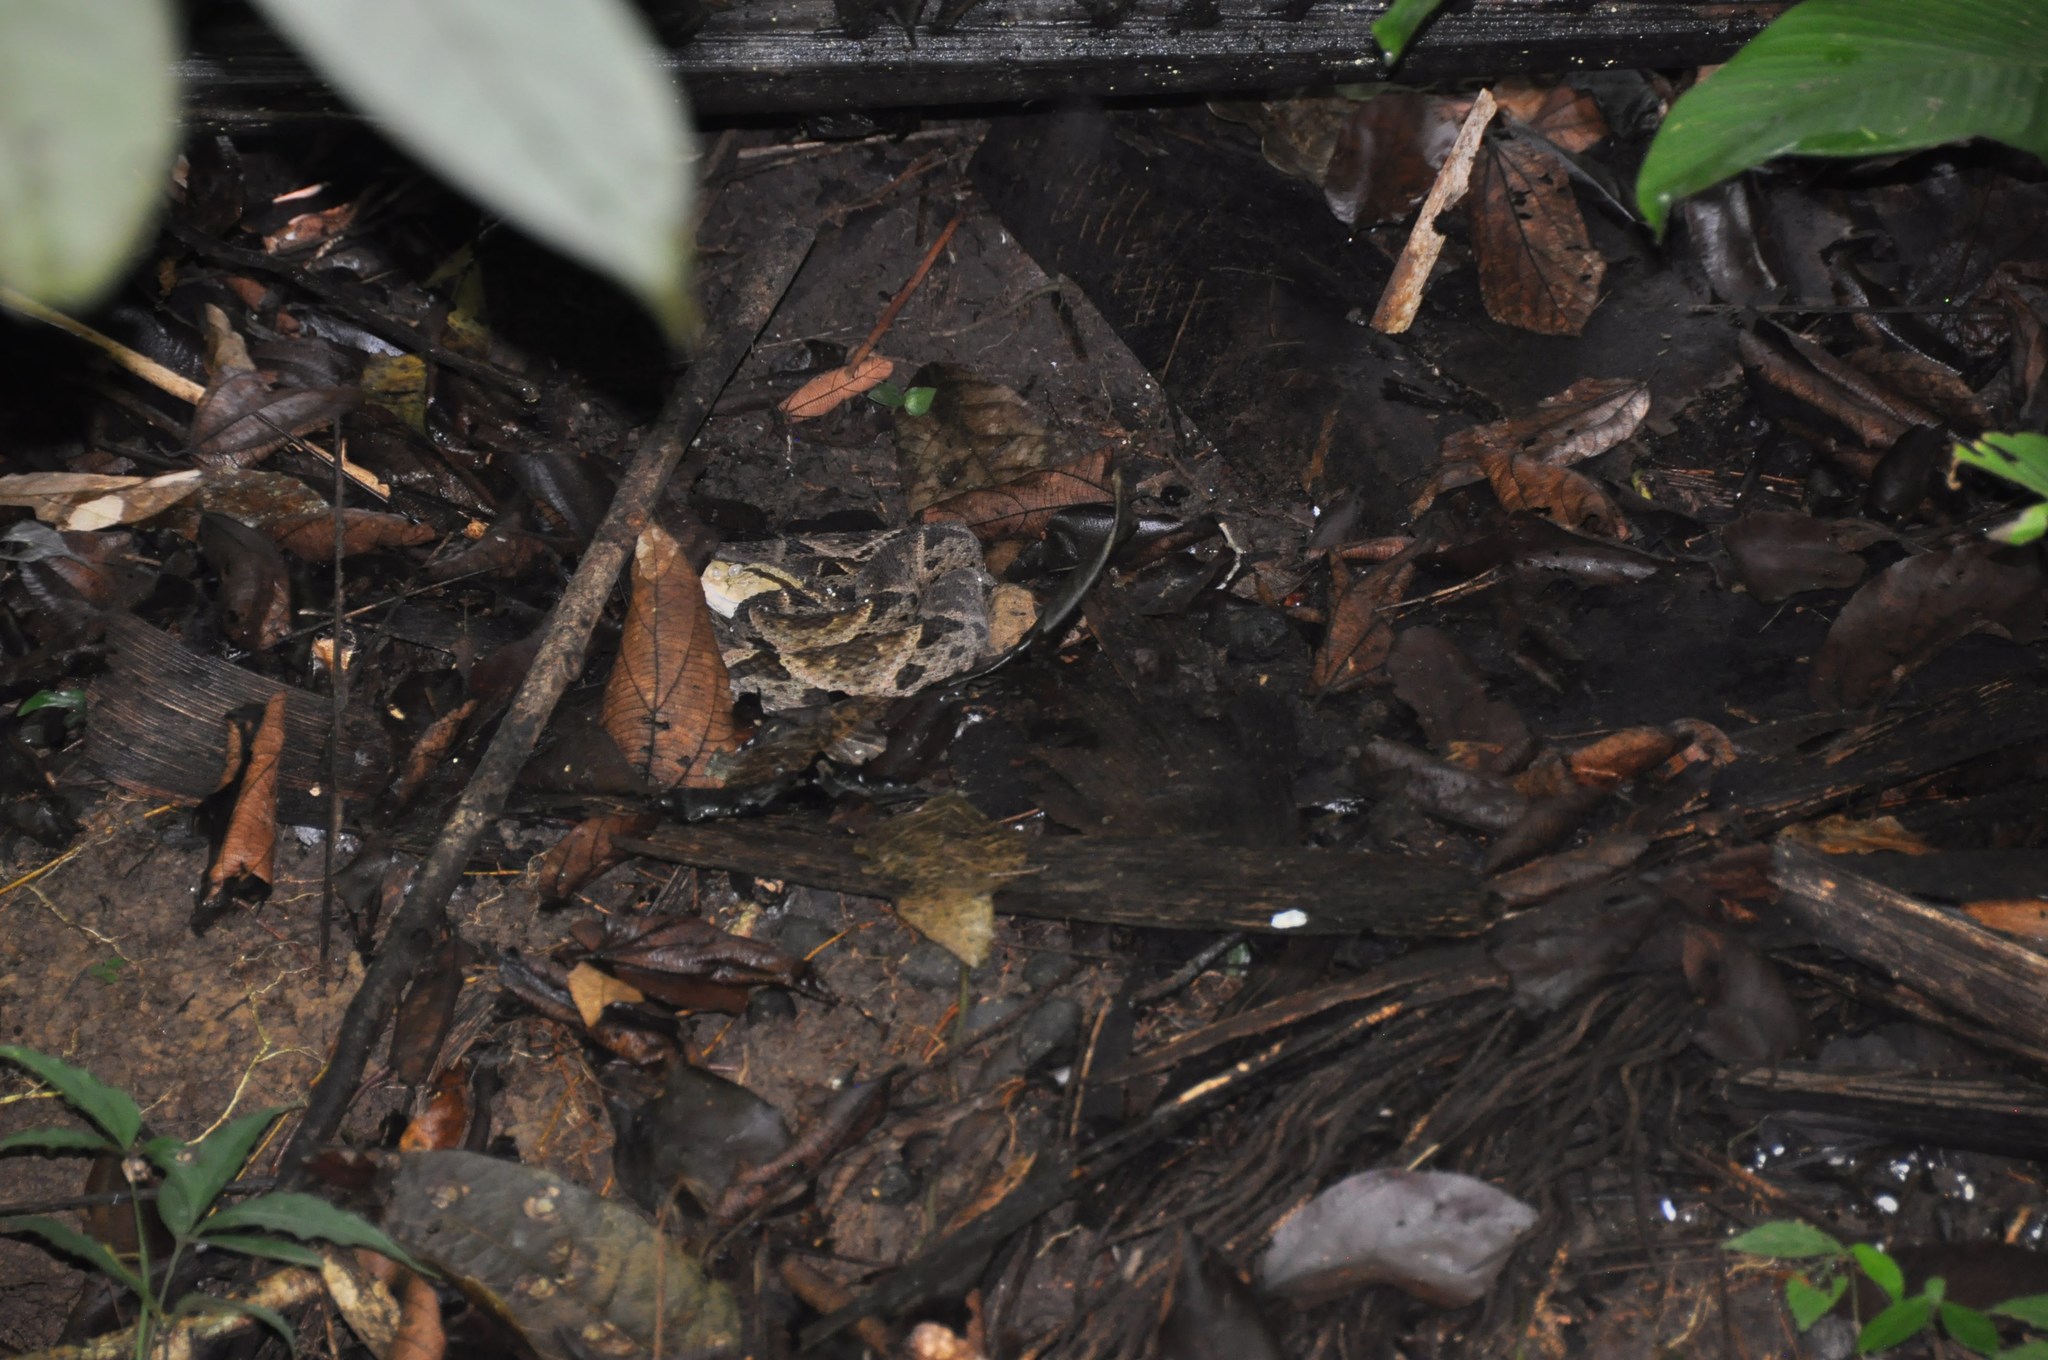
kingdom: Animalia
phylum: Chordata
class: Squamata
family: Viperidae
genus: Bothrops
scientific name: Bothrops asper
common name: Terciopelo
